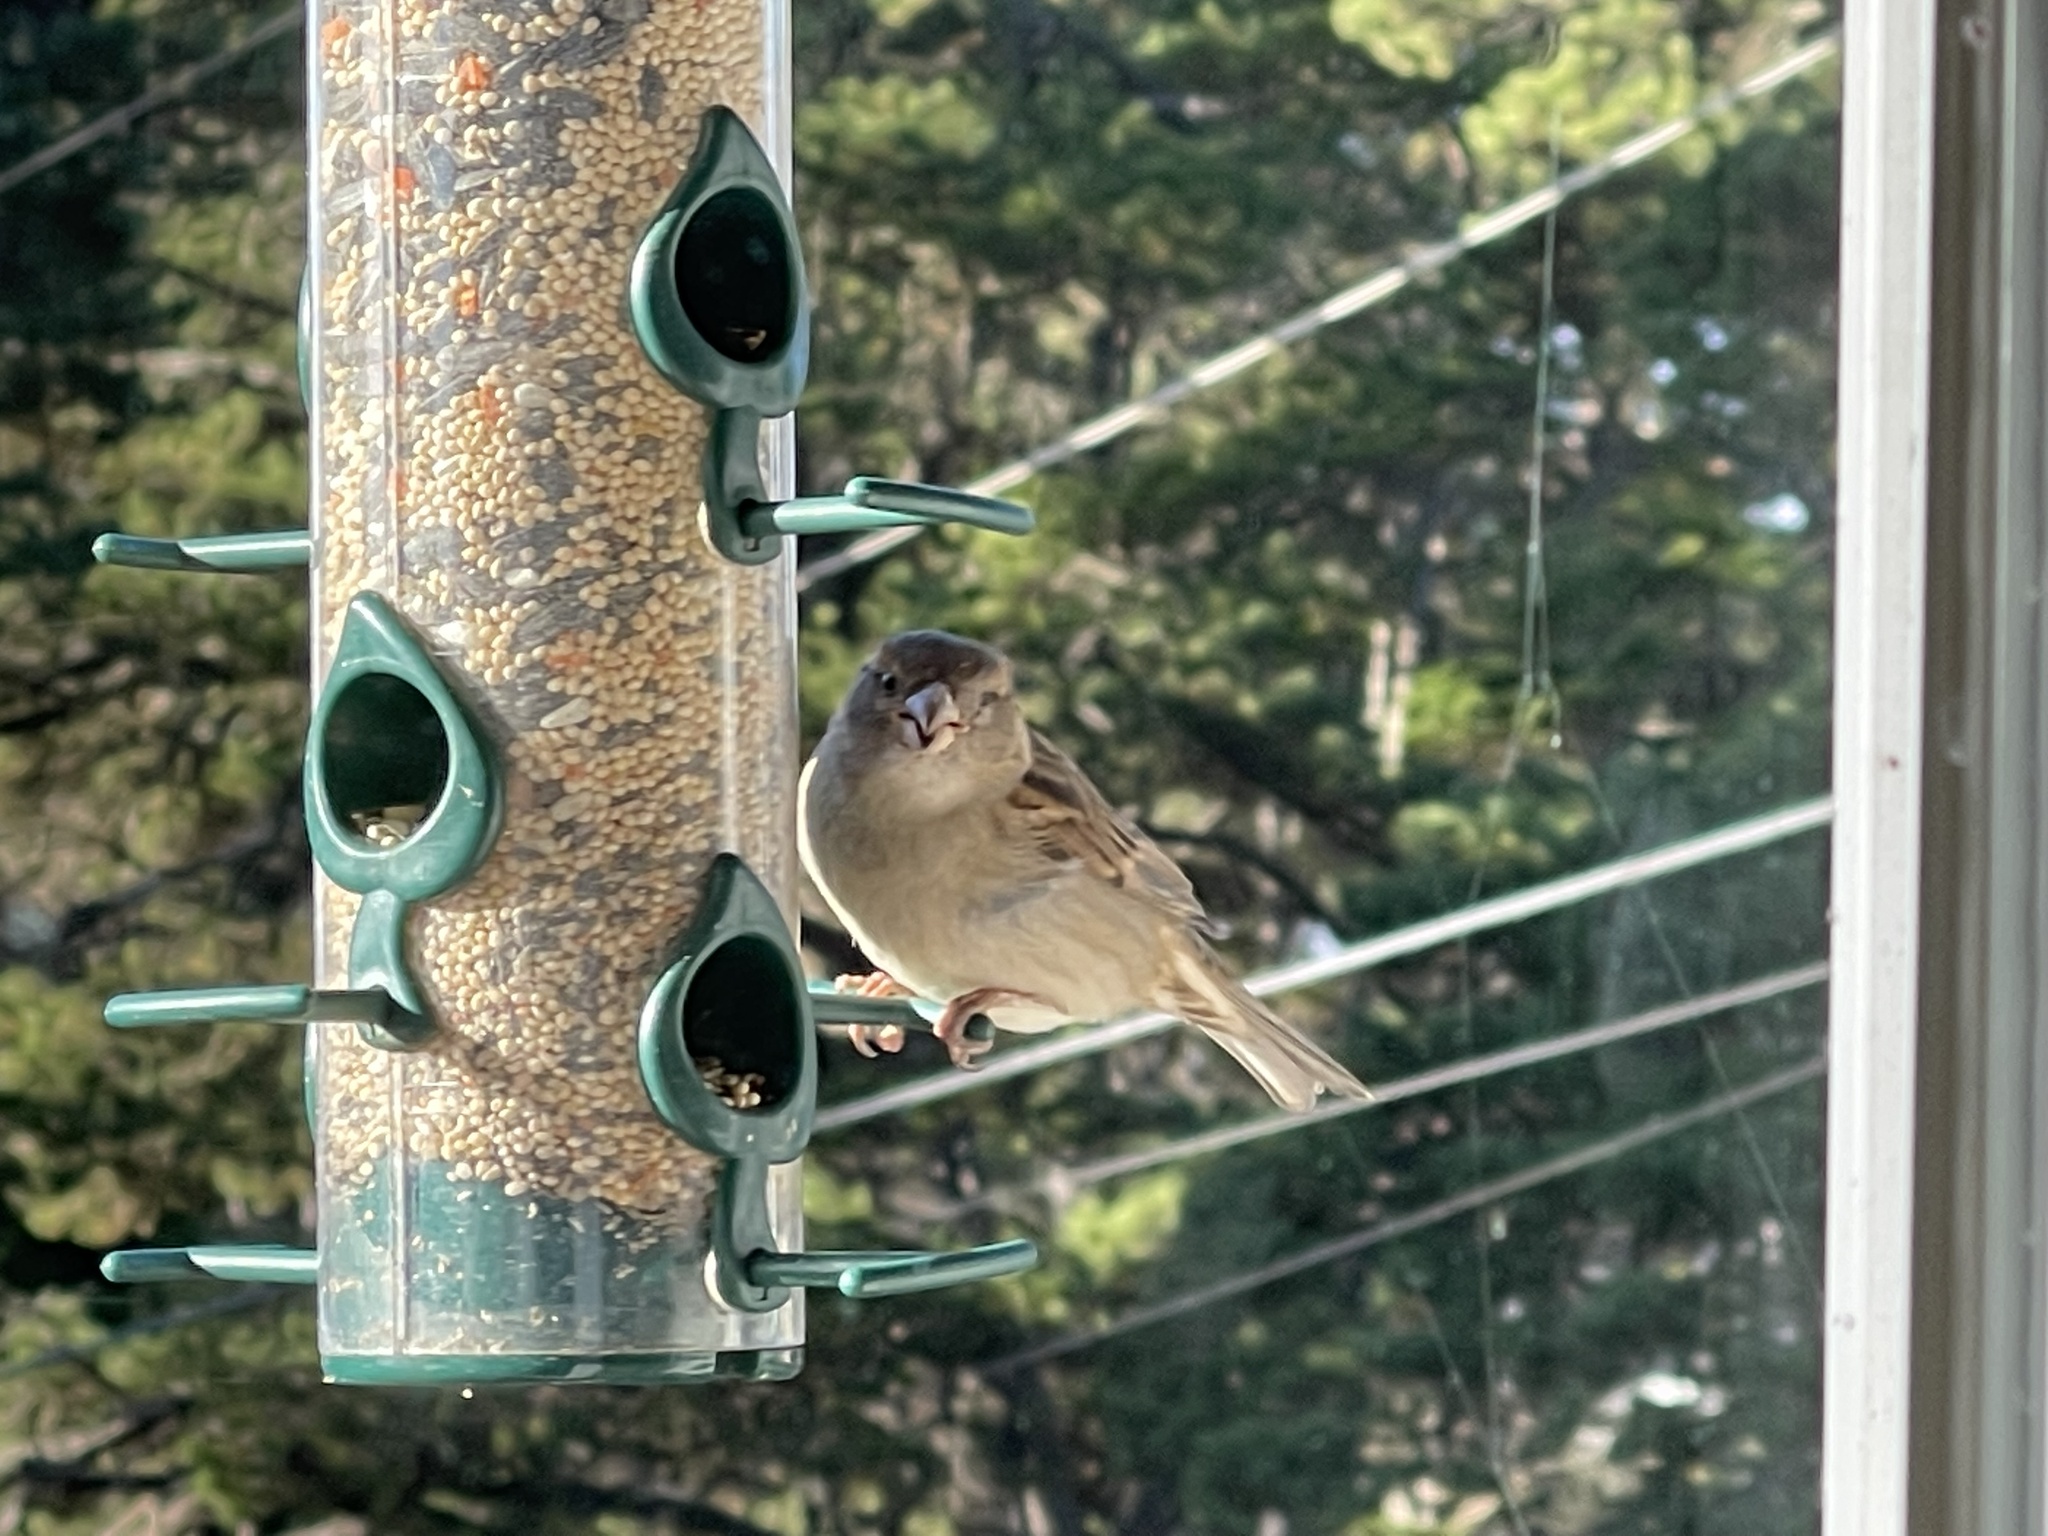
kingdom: Animalia
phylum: Chordata
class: Aves
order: Passeriformes
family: Passeridae
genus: Passer
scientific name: Passer domesticus
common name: House sparrow
